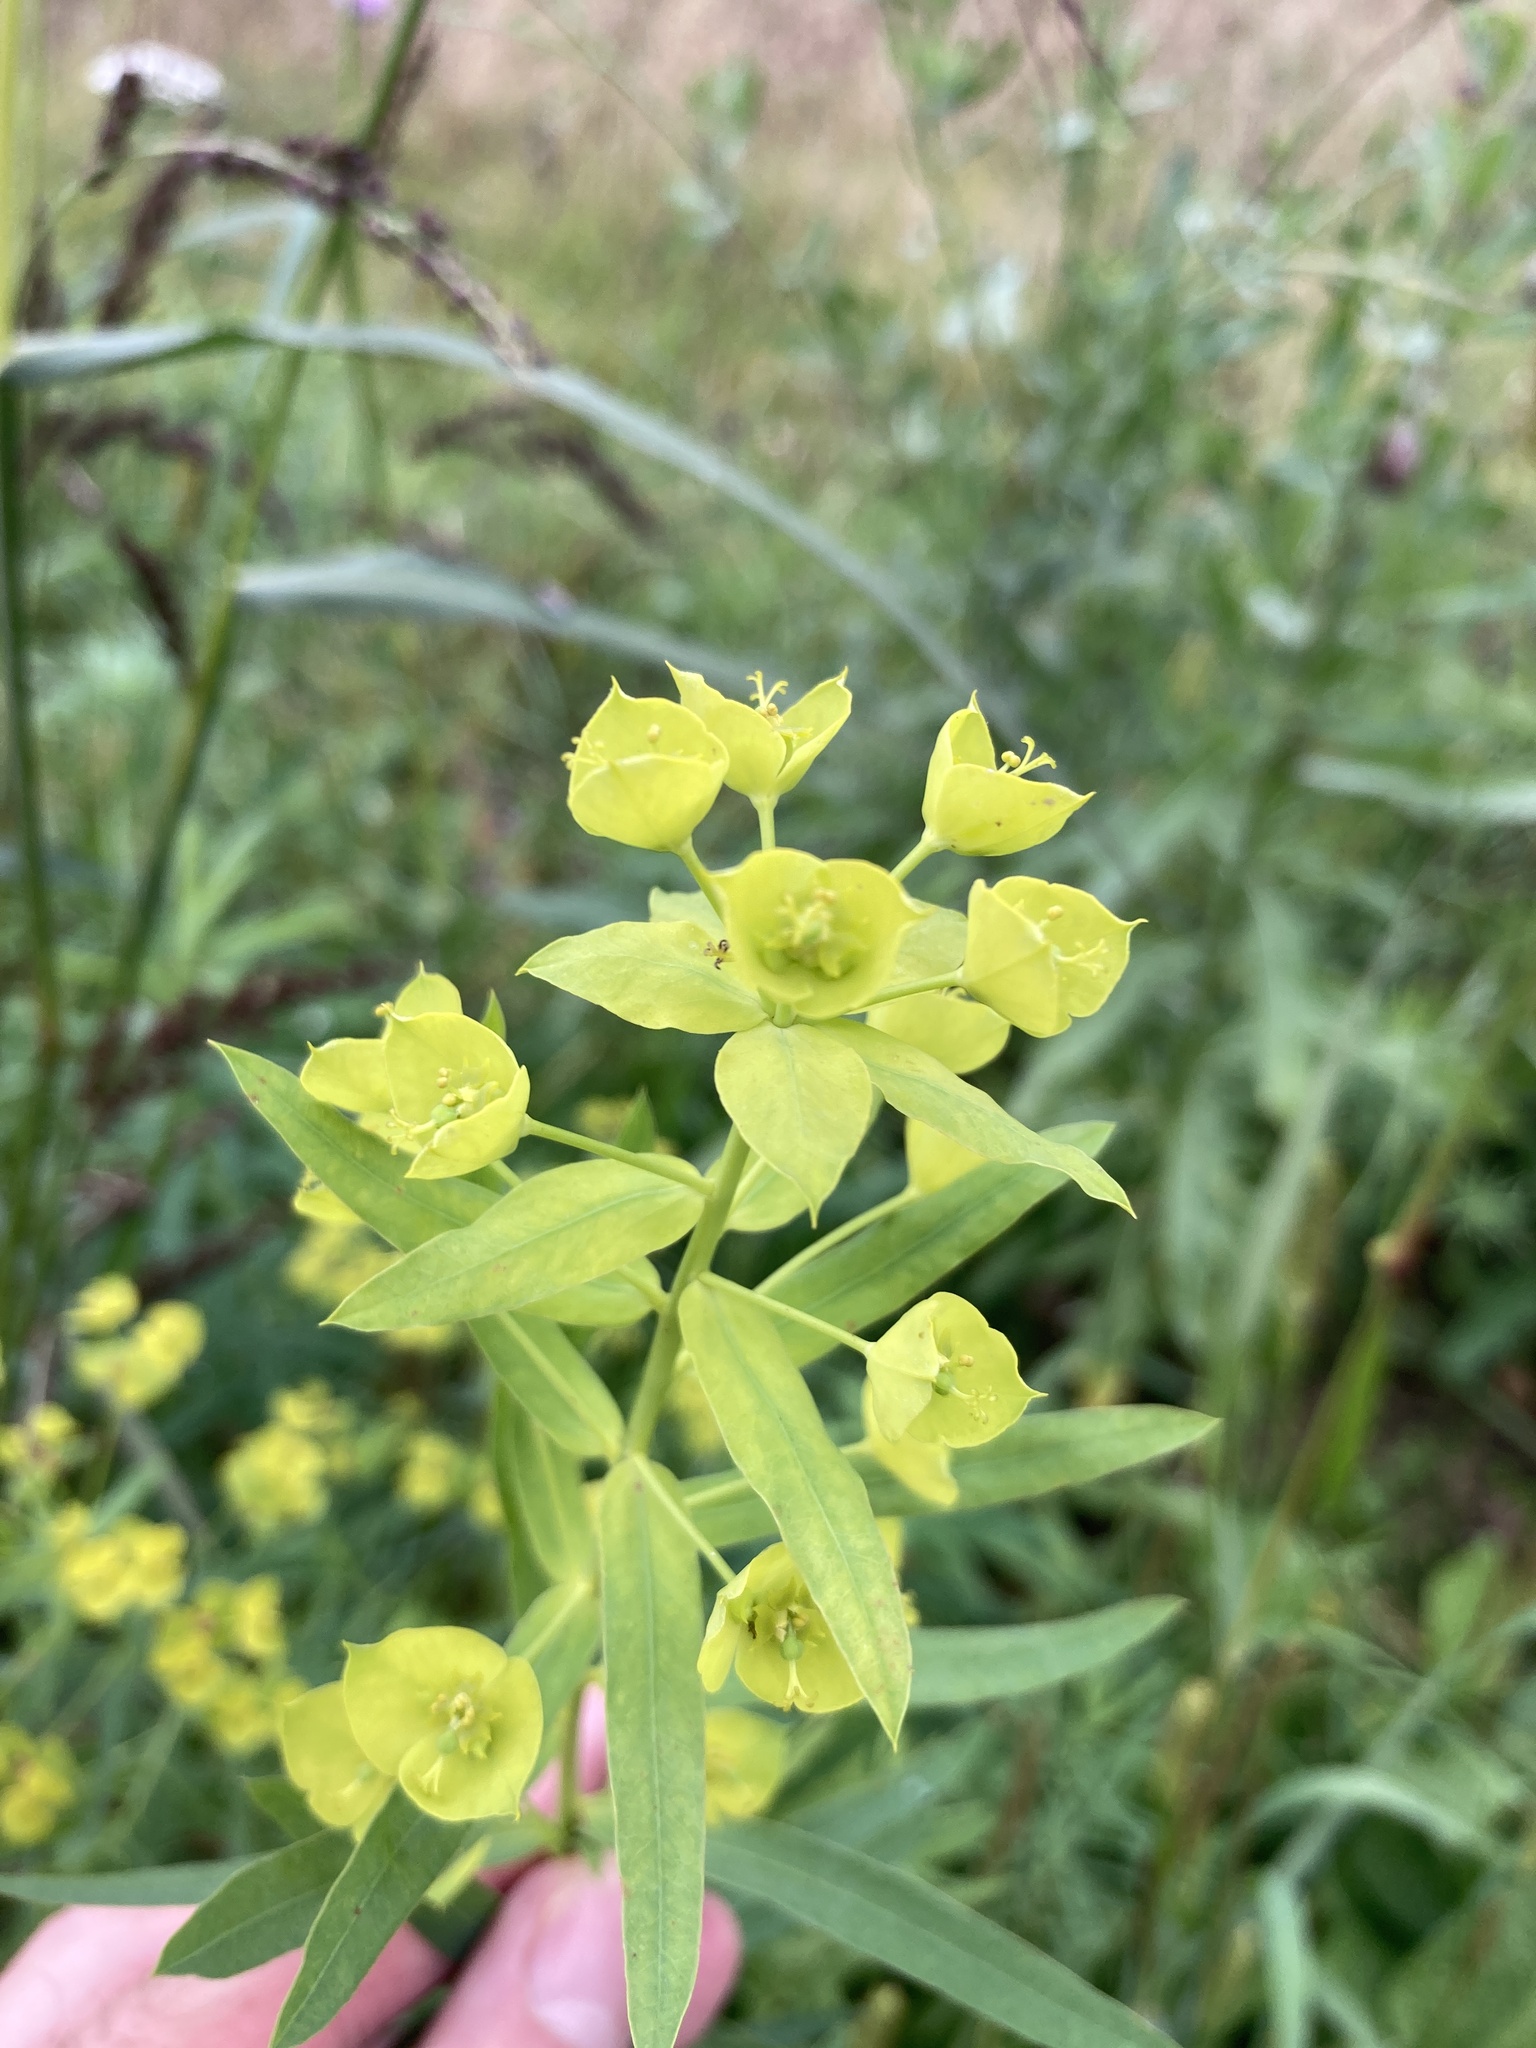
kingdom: Plantae
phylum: Tracheophyta
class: Magnoliopsida
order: Malpighiales
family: Euphorbiaceae
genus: Euphorbia
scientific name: Euphorbia virgata
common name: Leafy spurge
